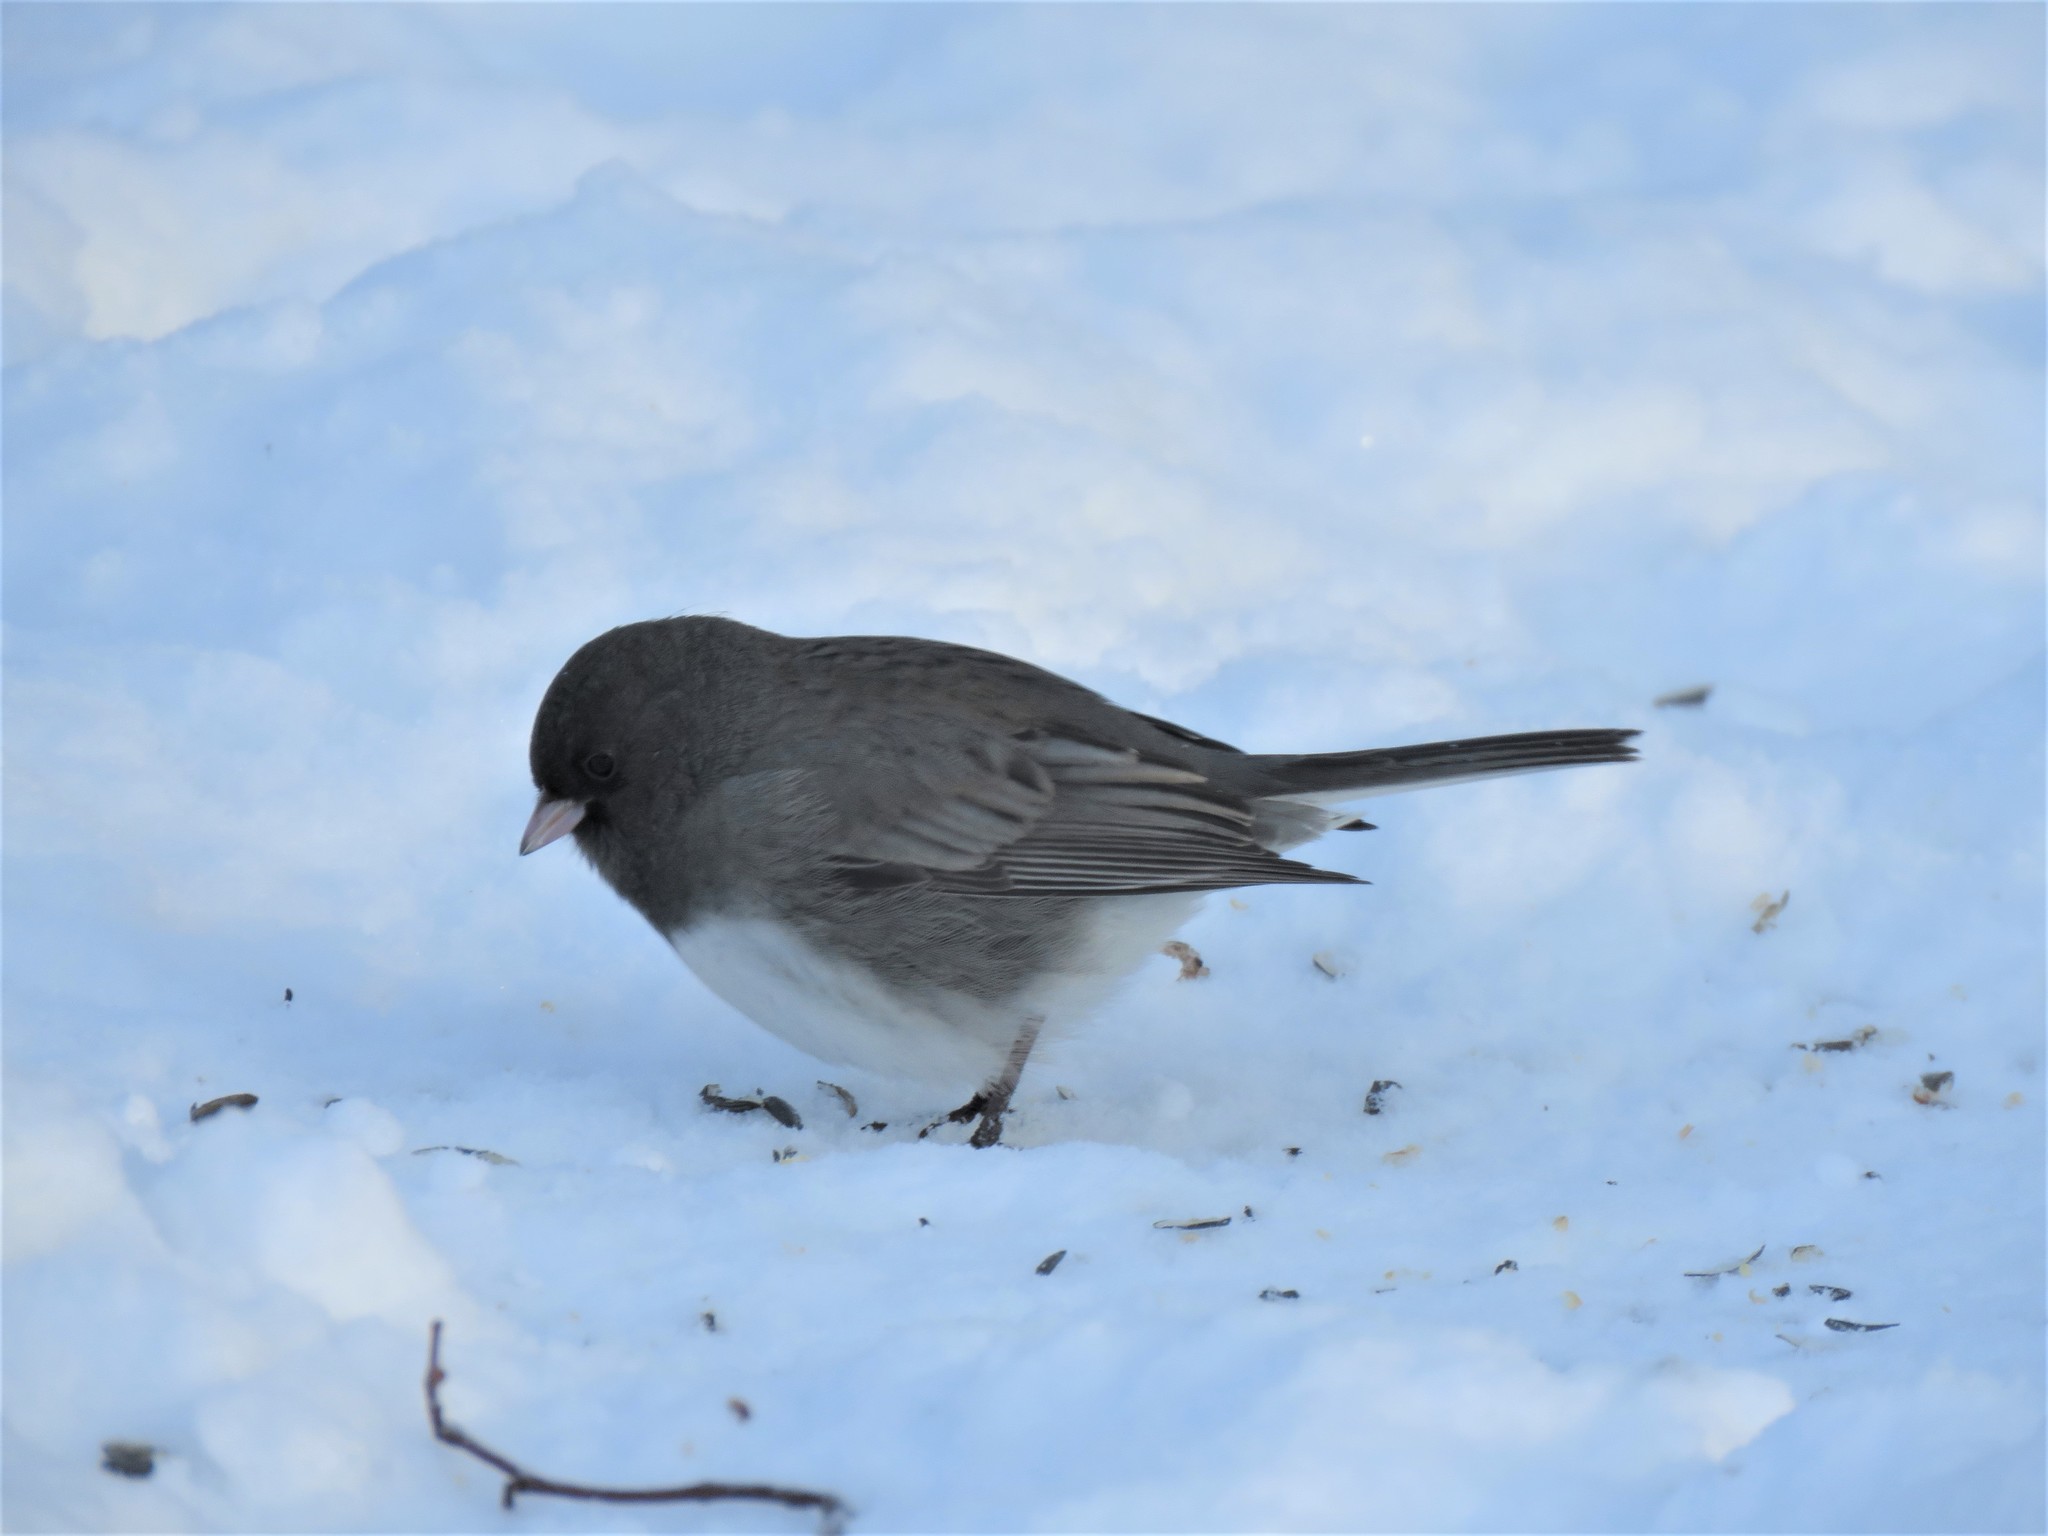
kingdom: Animalia
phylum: Chordata
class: Aves
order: Passeriformes
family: Passerellidae
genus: Junco
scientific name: Junco hyemalis
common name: Dark-eyed junco
